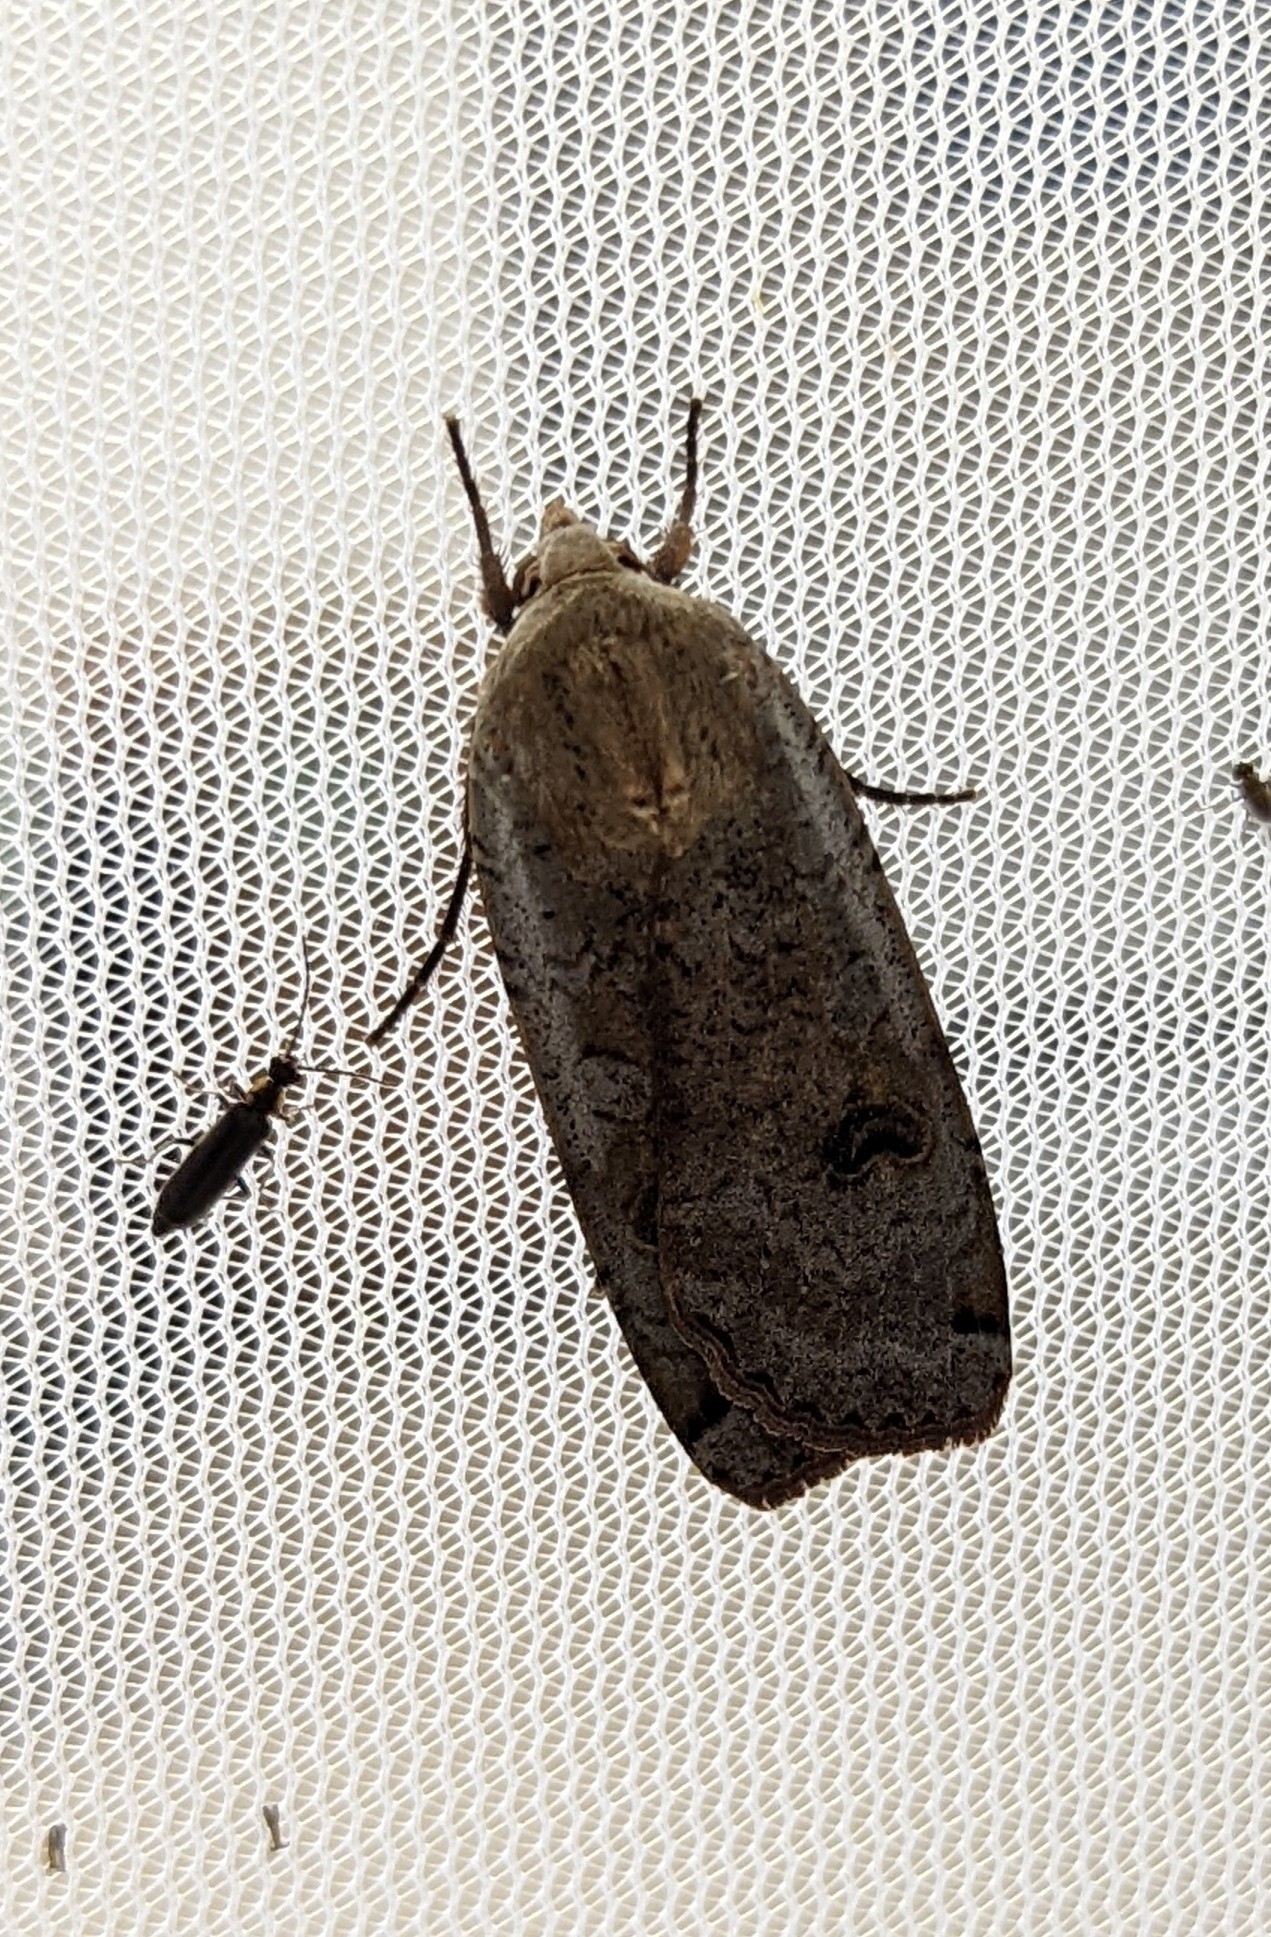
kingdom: Animalia
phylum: Arthropoda
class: Insecta
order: Lepidoptera
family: Noctuidae
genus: Noctua
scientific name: Noctua pronuba
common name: Large yellow underwing
